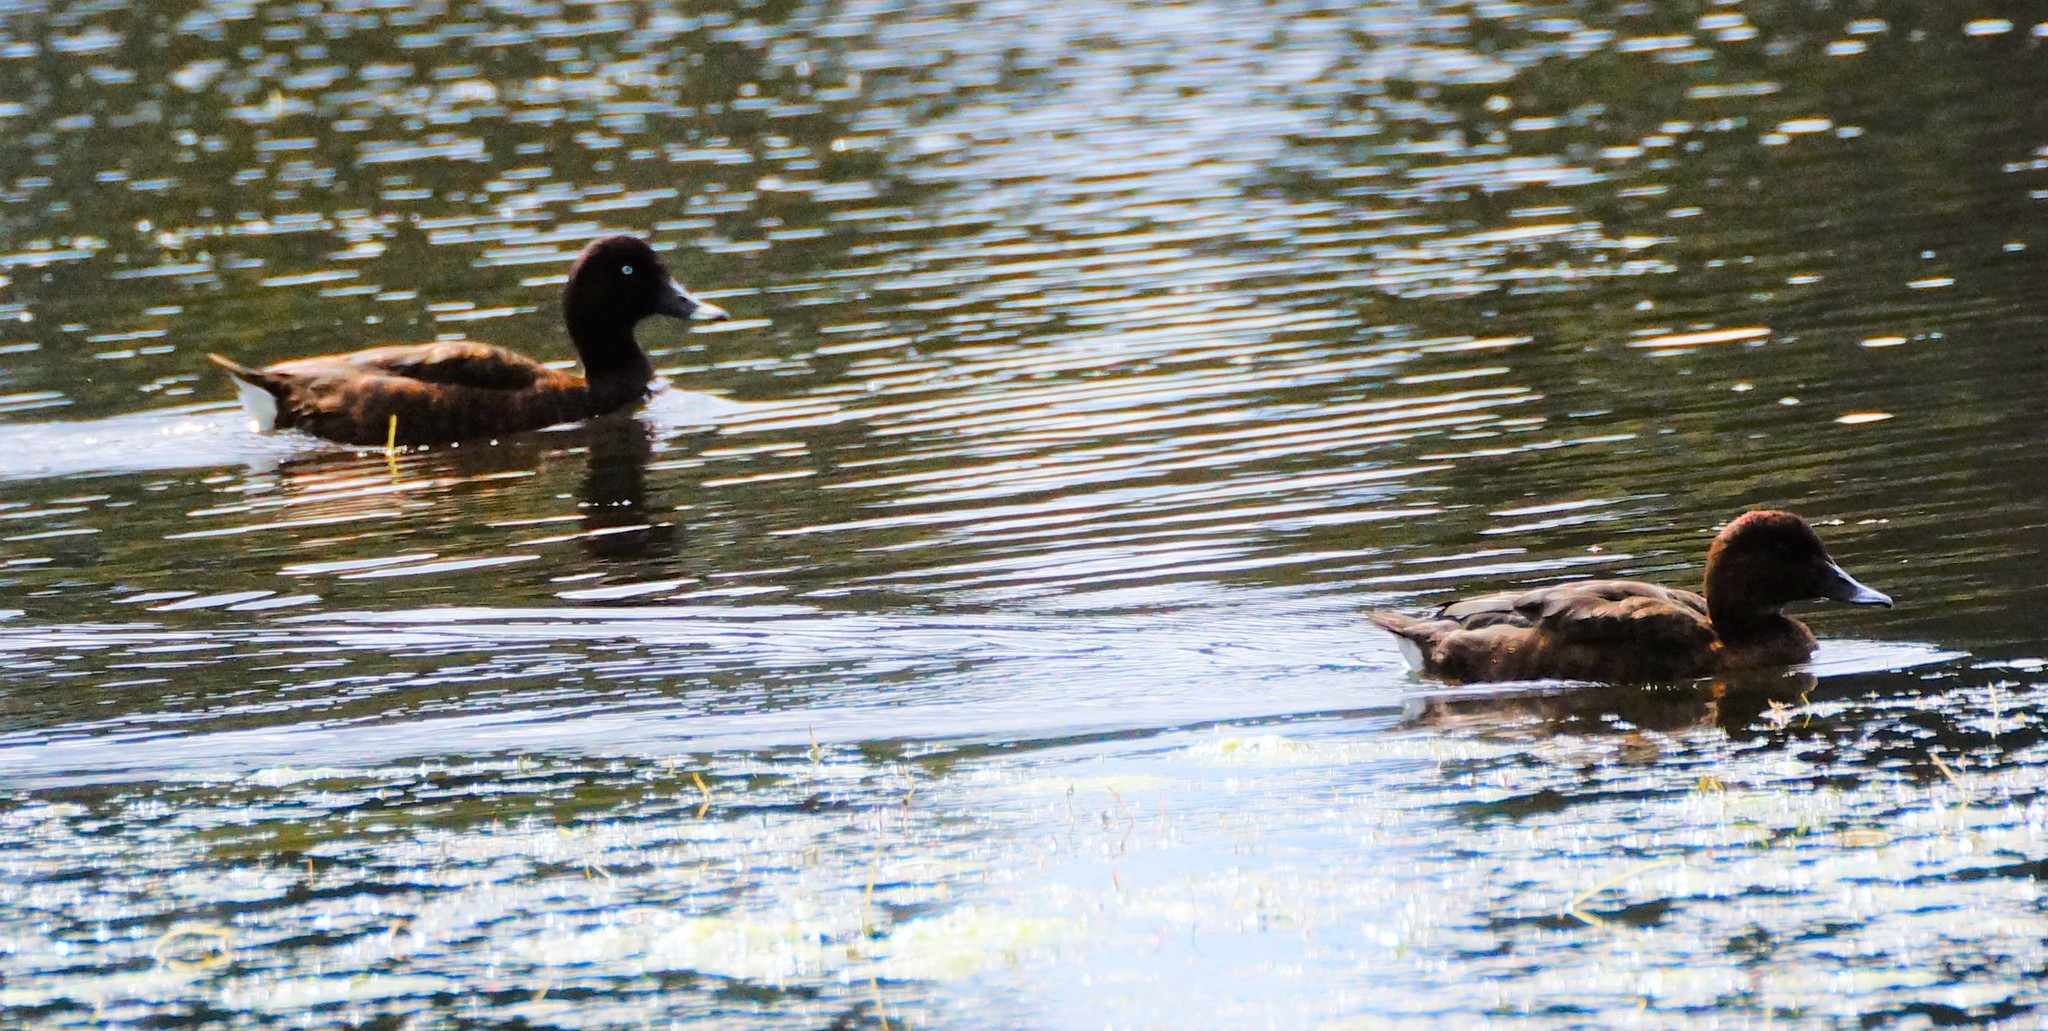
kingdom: Animalia
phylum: Chordata
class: Aves
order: Anseriformes
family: Anatidae
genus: Aythya
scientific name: Aythya australis
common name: Hardhead
